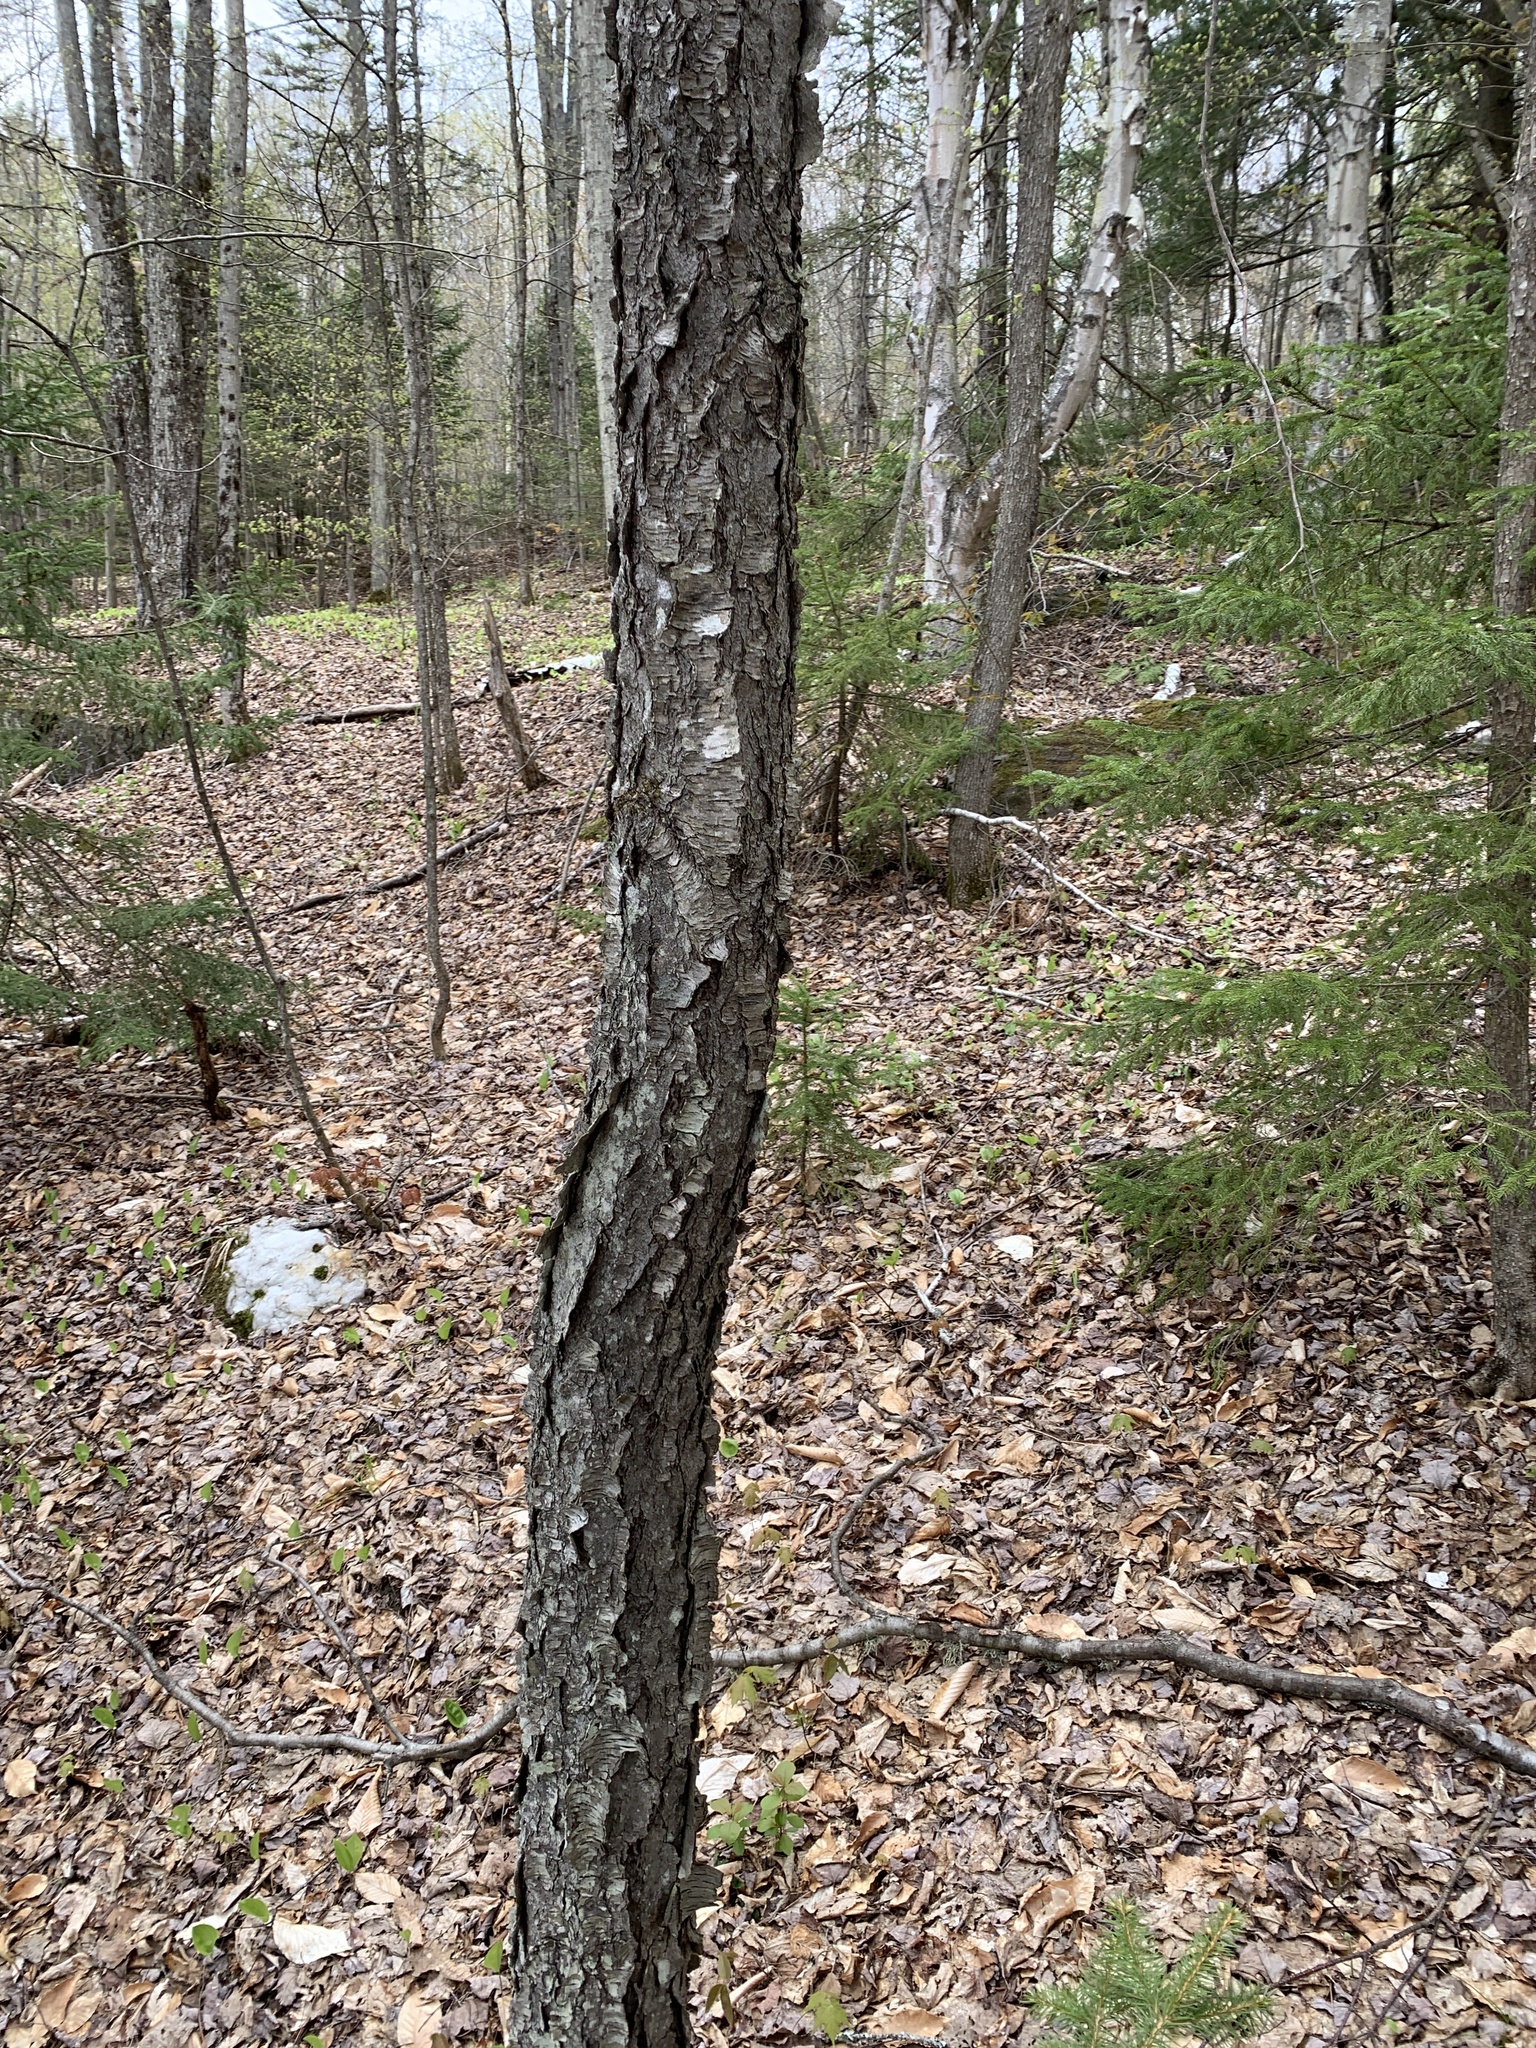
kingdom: Plantae
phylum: Tracheophyta
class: Magnoliopsida
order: Rosales
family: Rosaceae
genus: Prunus
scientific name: Prunus serotina
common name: Black cherry
